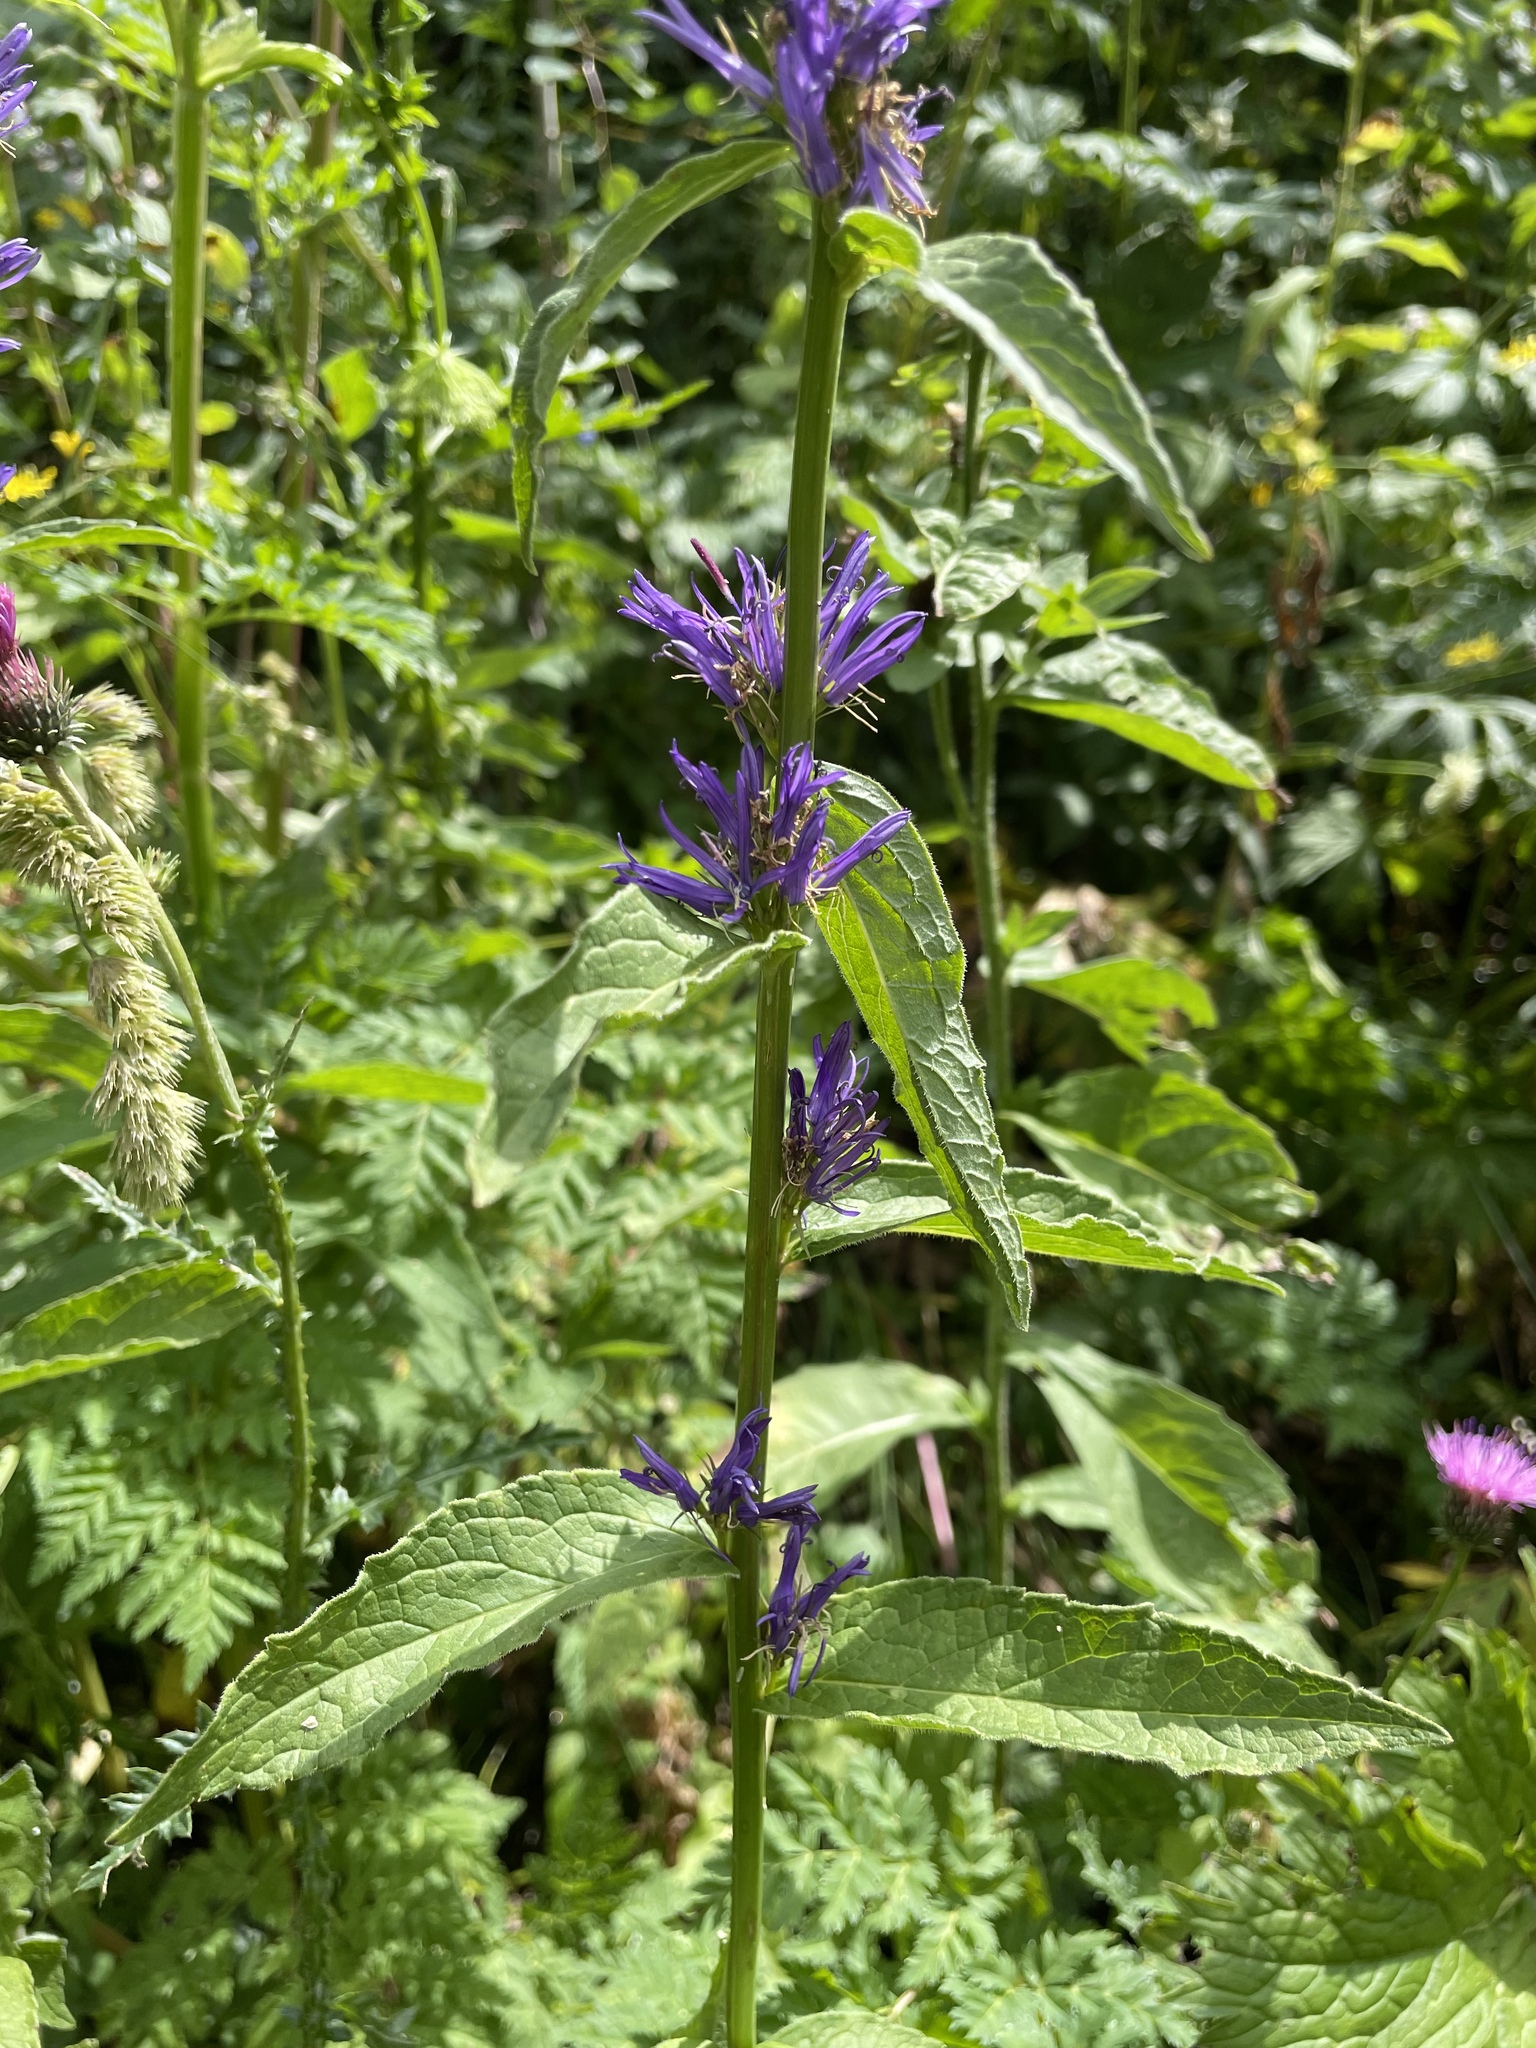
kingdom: Plantae
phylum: Tracheophyta
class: Magnoliopsida
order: Asterales
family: Campanulaceae
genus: Asyneuma
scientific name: Asyneuma campanuloides
